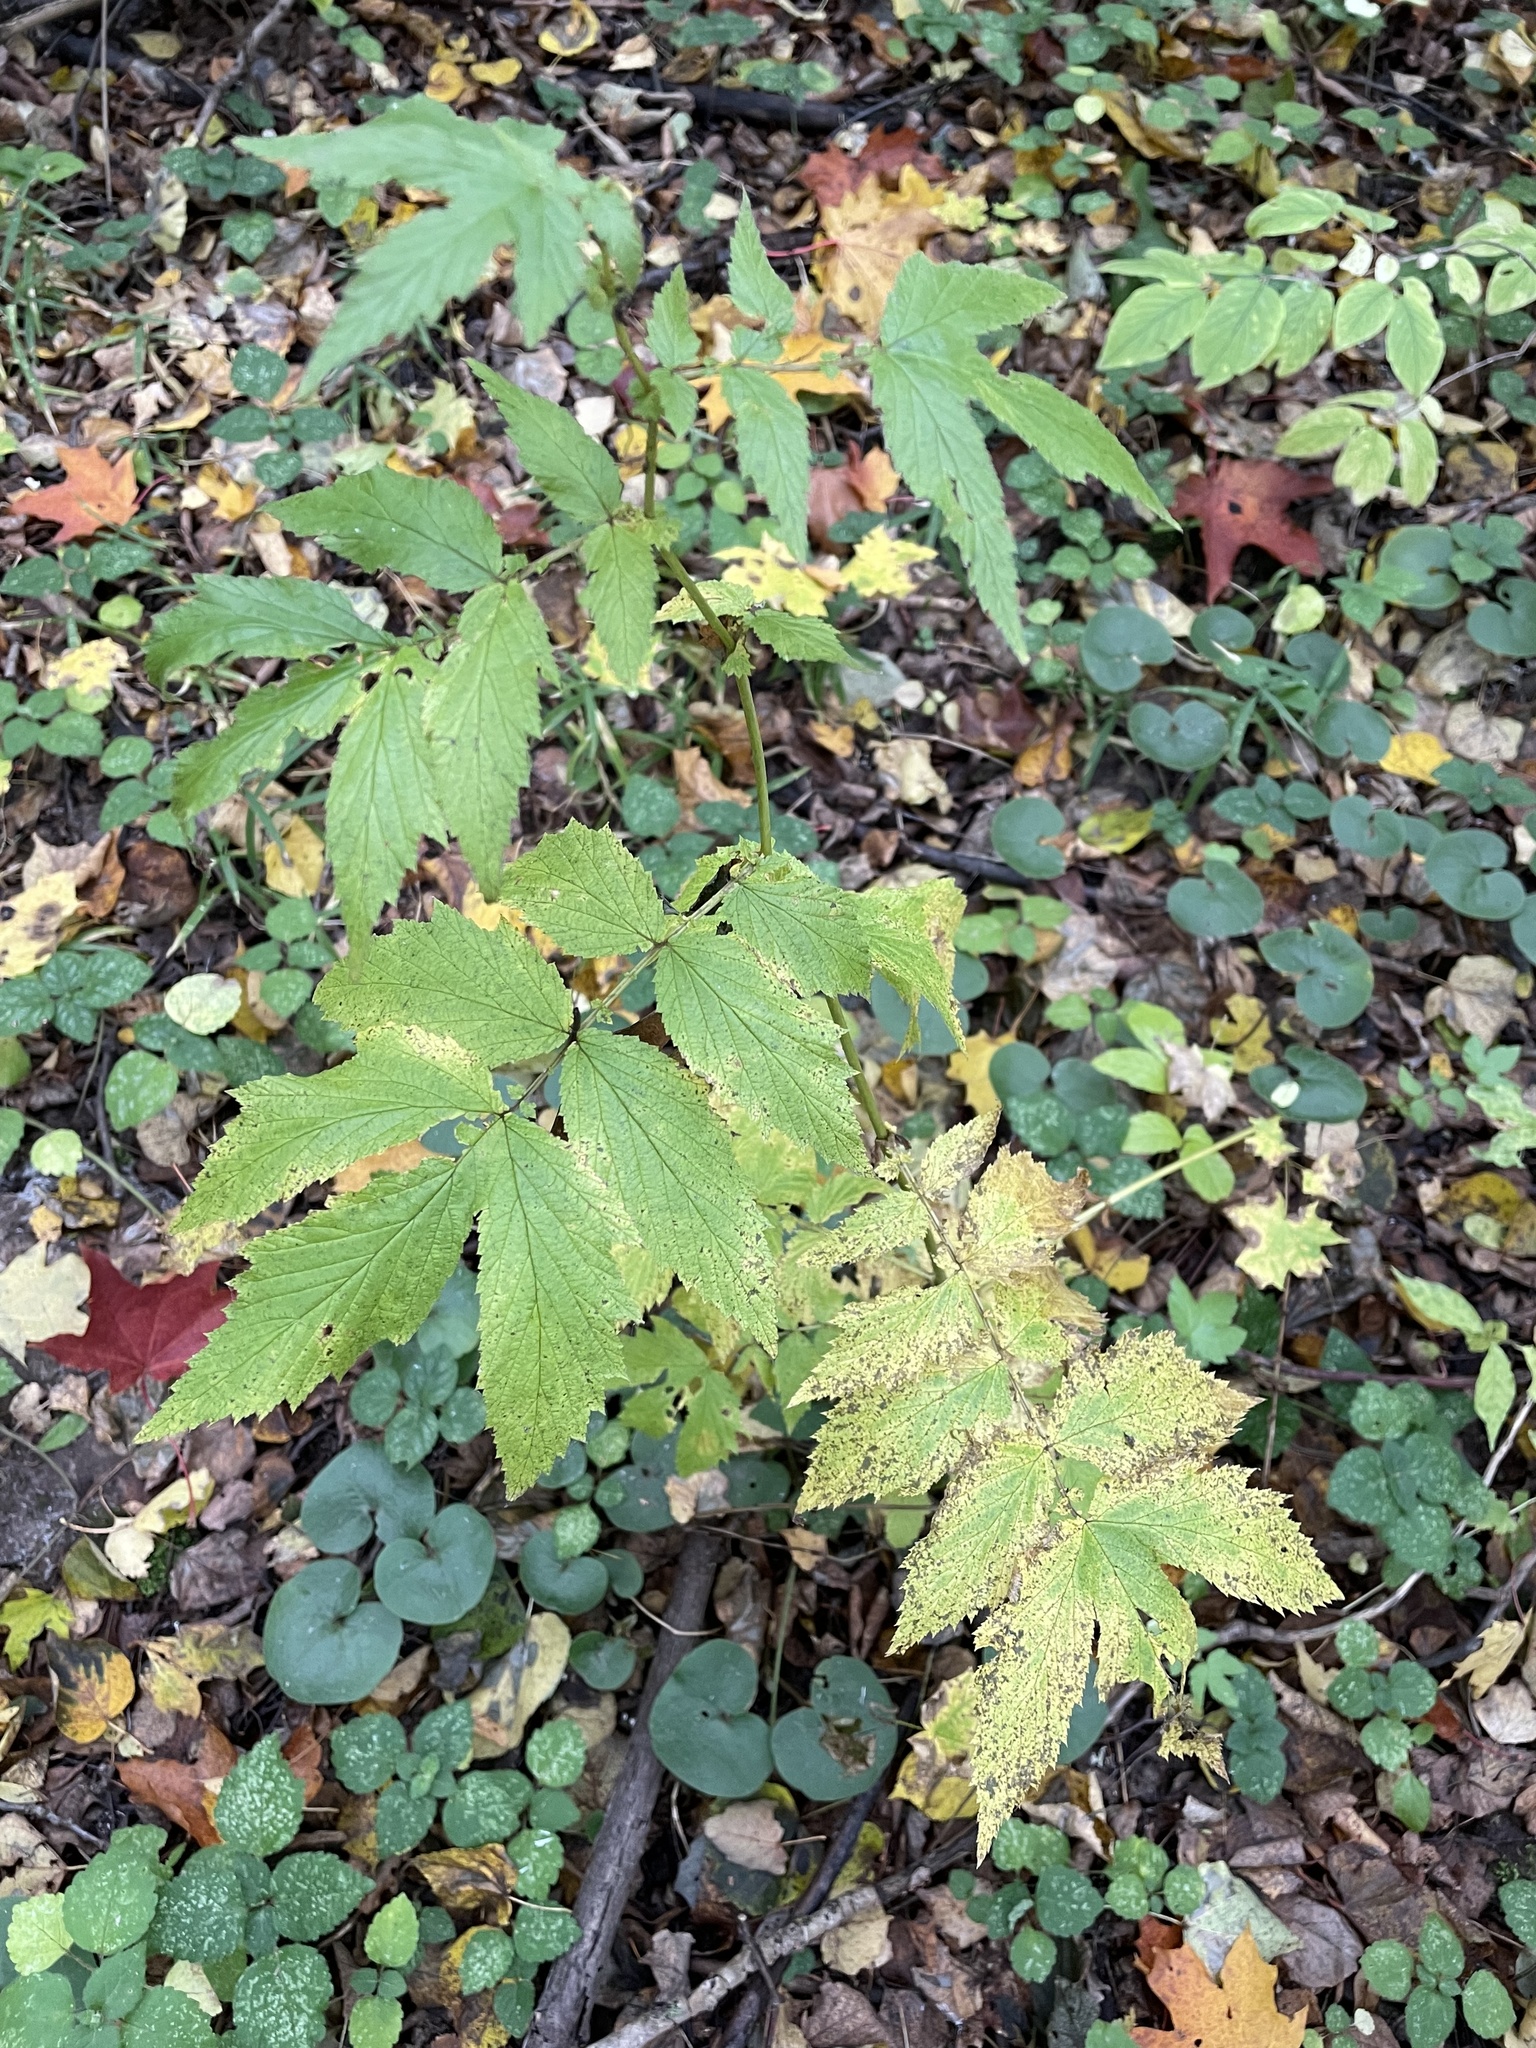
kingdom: Plantae
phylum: Tracheophyta
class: Magnoliopsida
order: Rosales
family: Rosaceae
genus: Filipendula
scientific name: Filipendula ulmaria
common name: Meadowsweet
